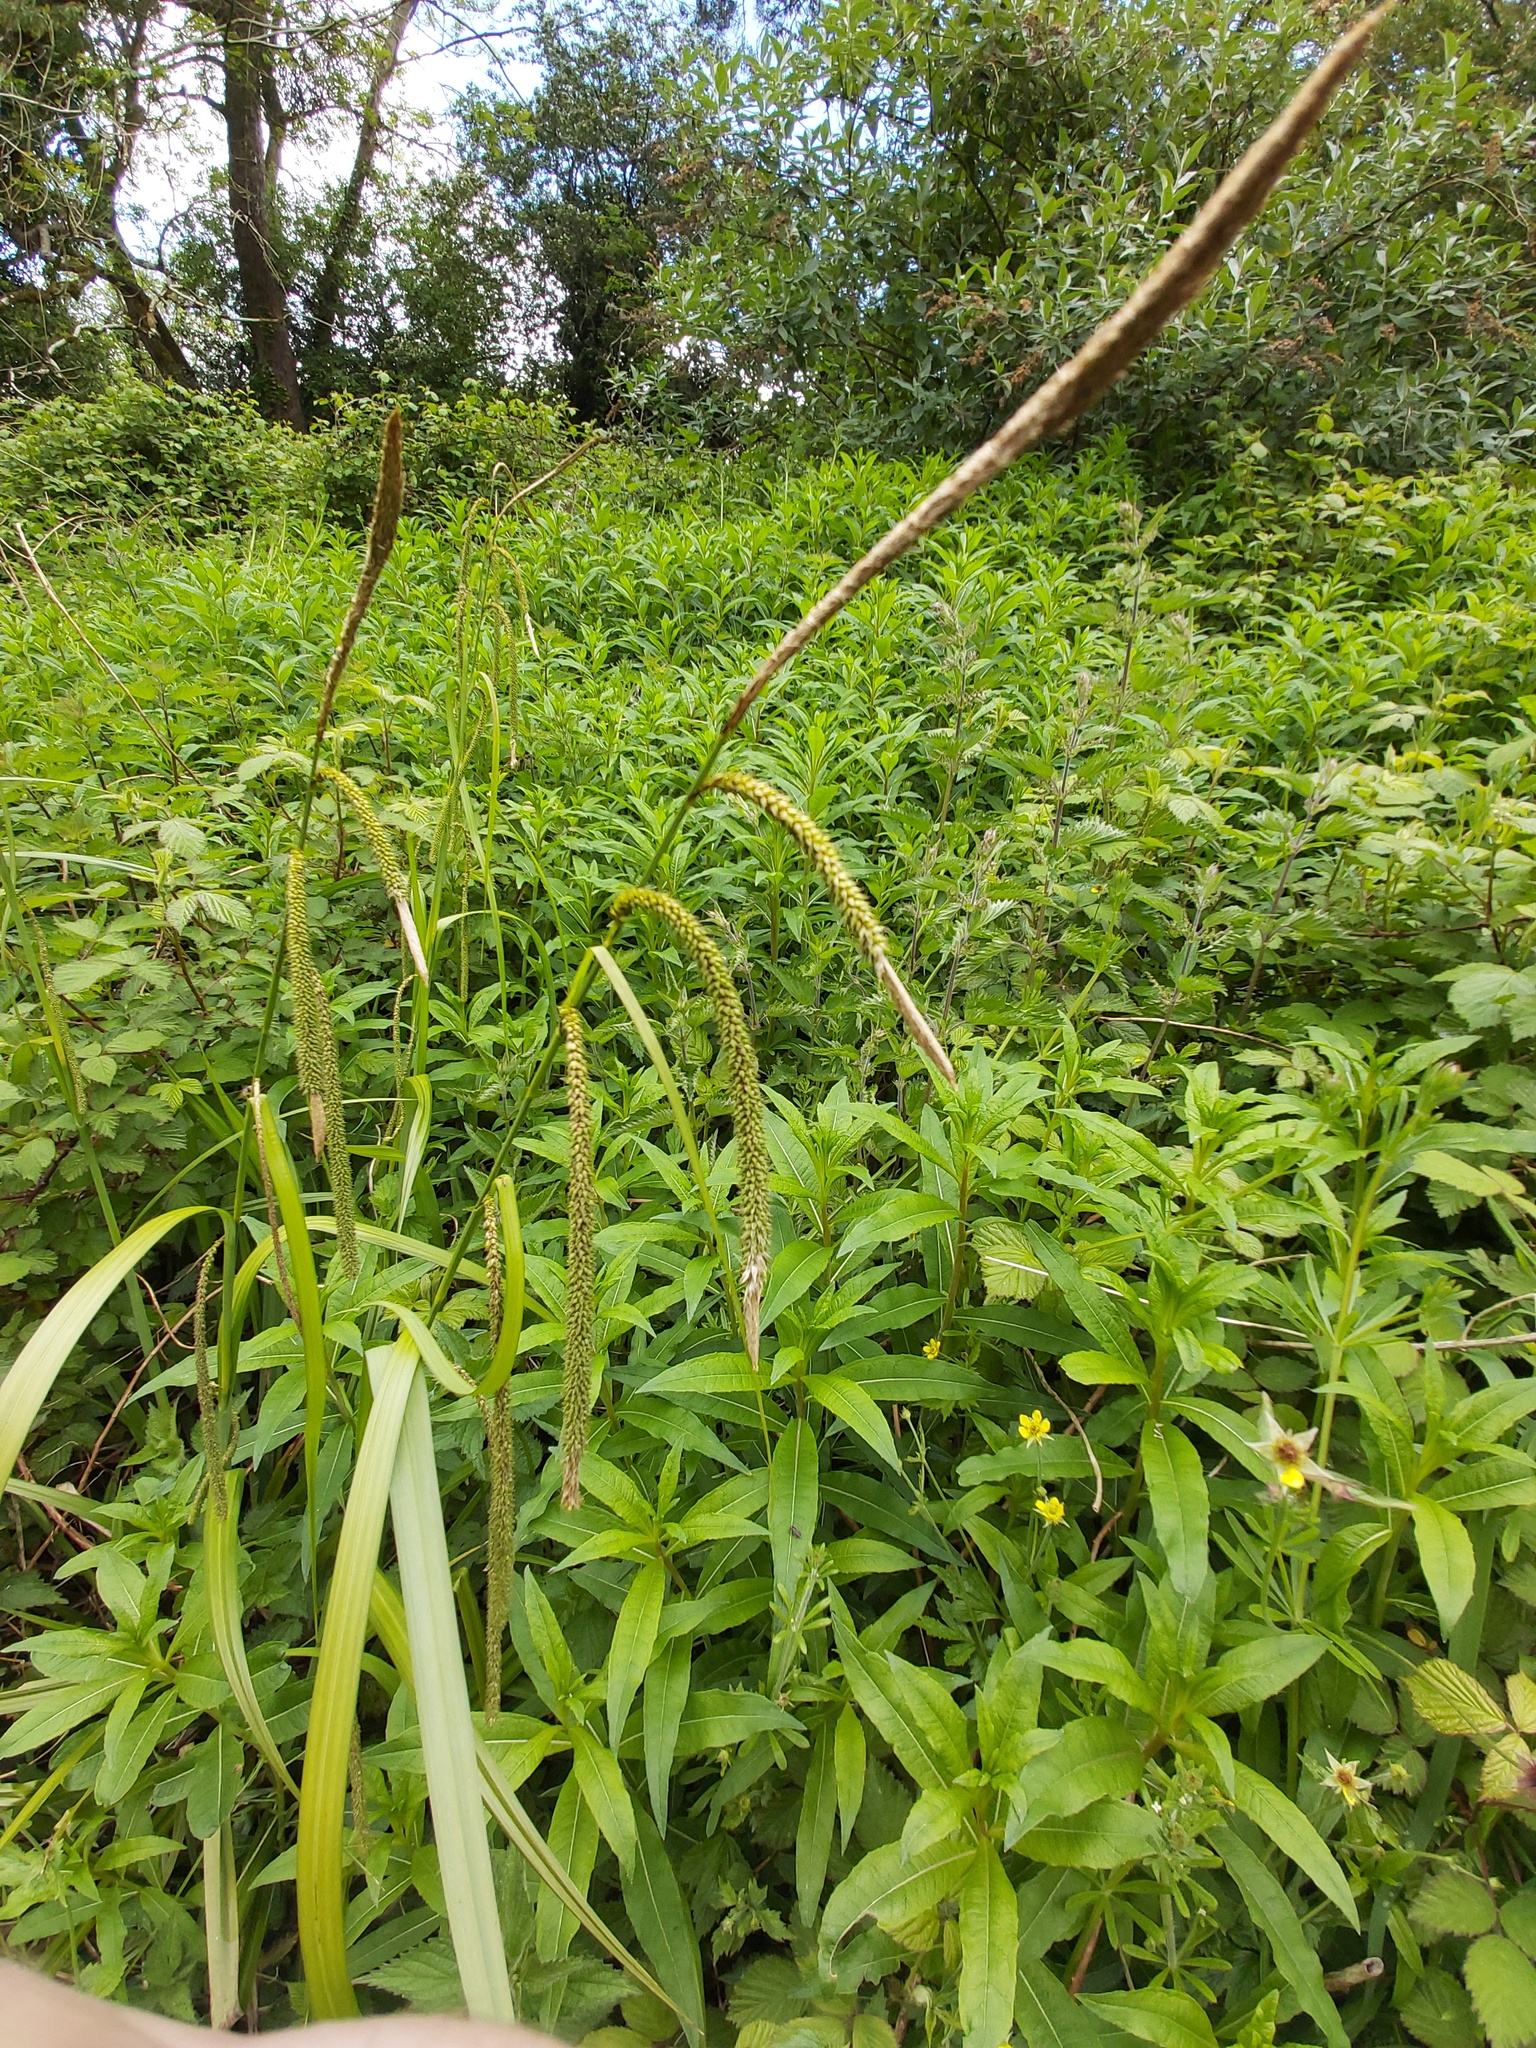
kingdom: Plantae
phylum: Tracheophyta
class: Liliopsida
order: Poales
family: Cyperaceae
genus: Carex
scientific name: Carex pendula
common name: Pendulous sedge
